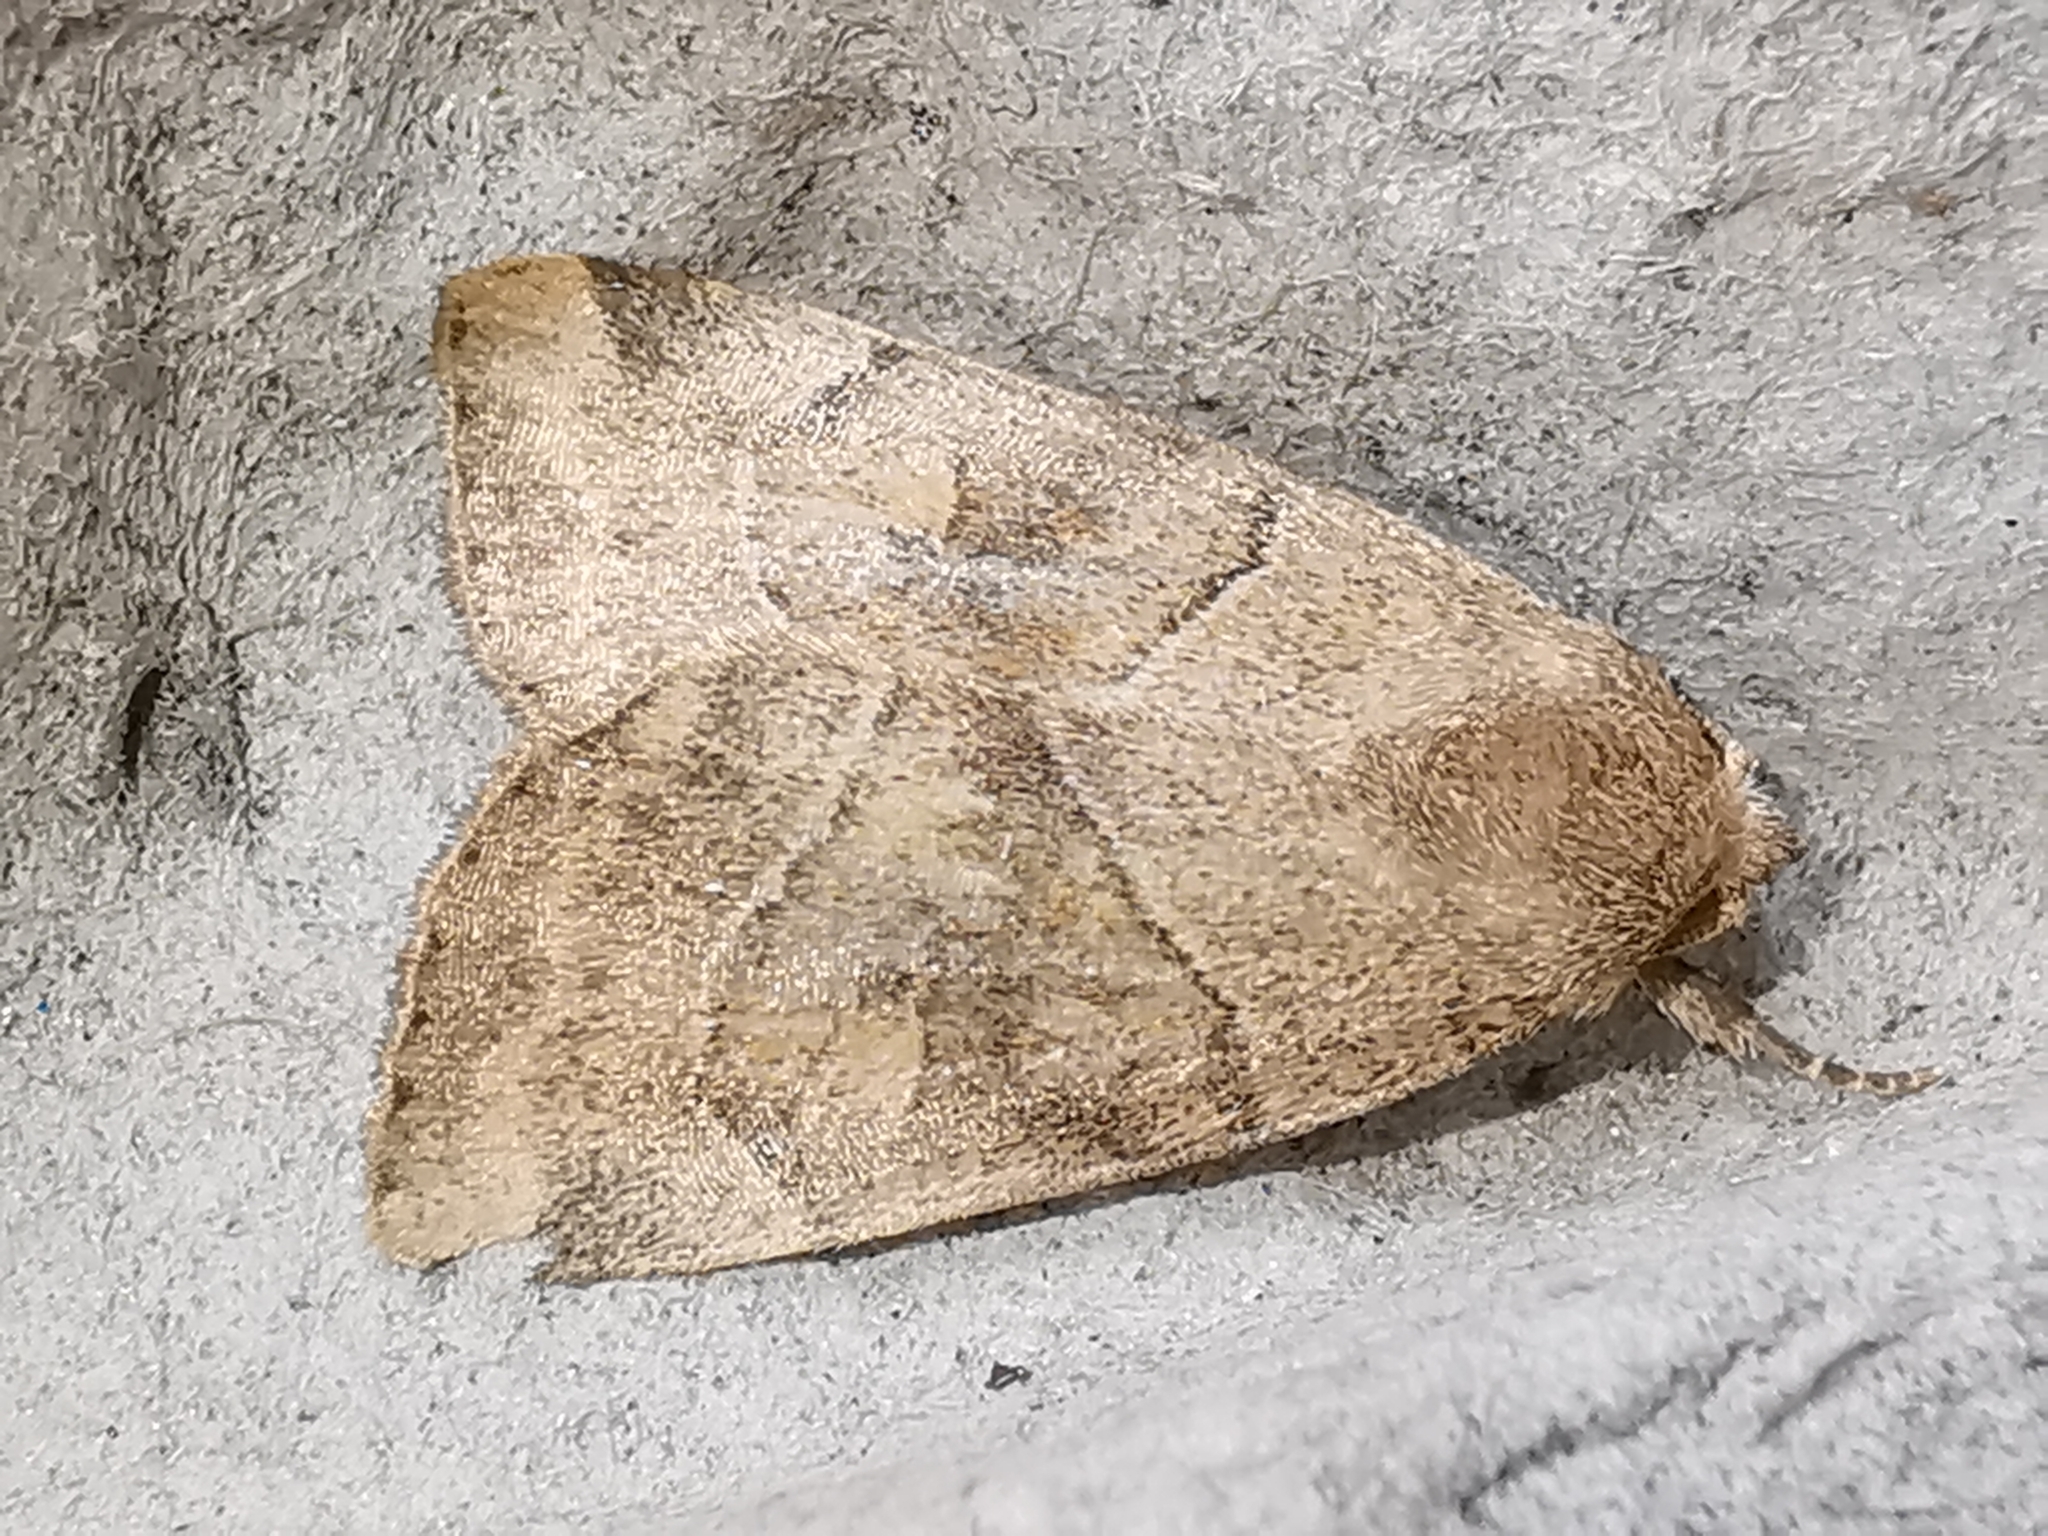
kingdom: Animalia
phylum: Arthropoda
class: Insecta
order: Lepidoptera
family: Noctuidae
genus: Cosmia
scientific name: Cosmia trapezina
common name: Dun-bar
